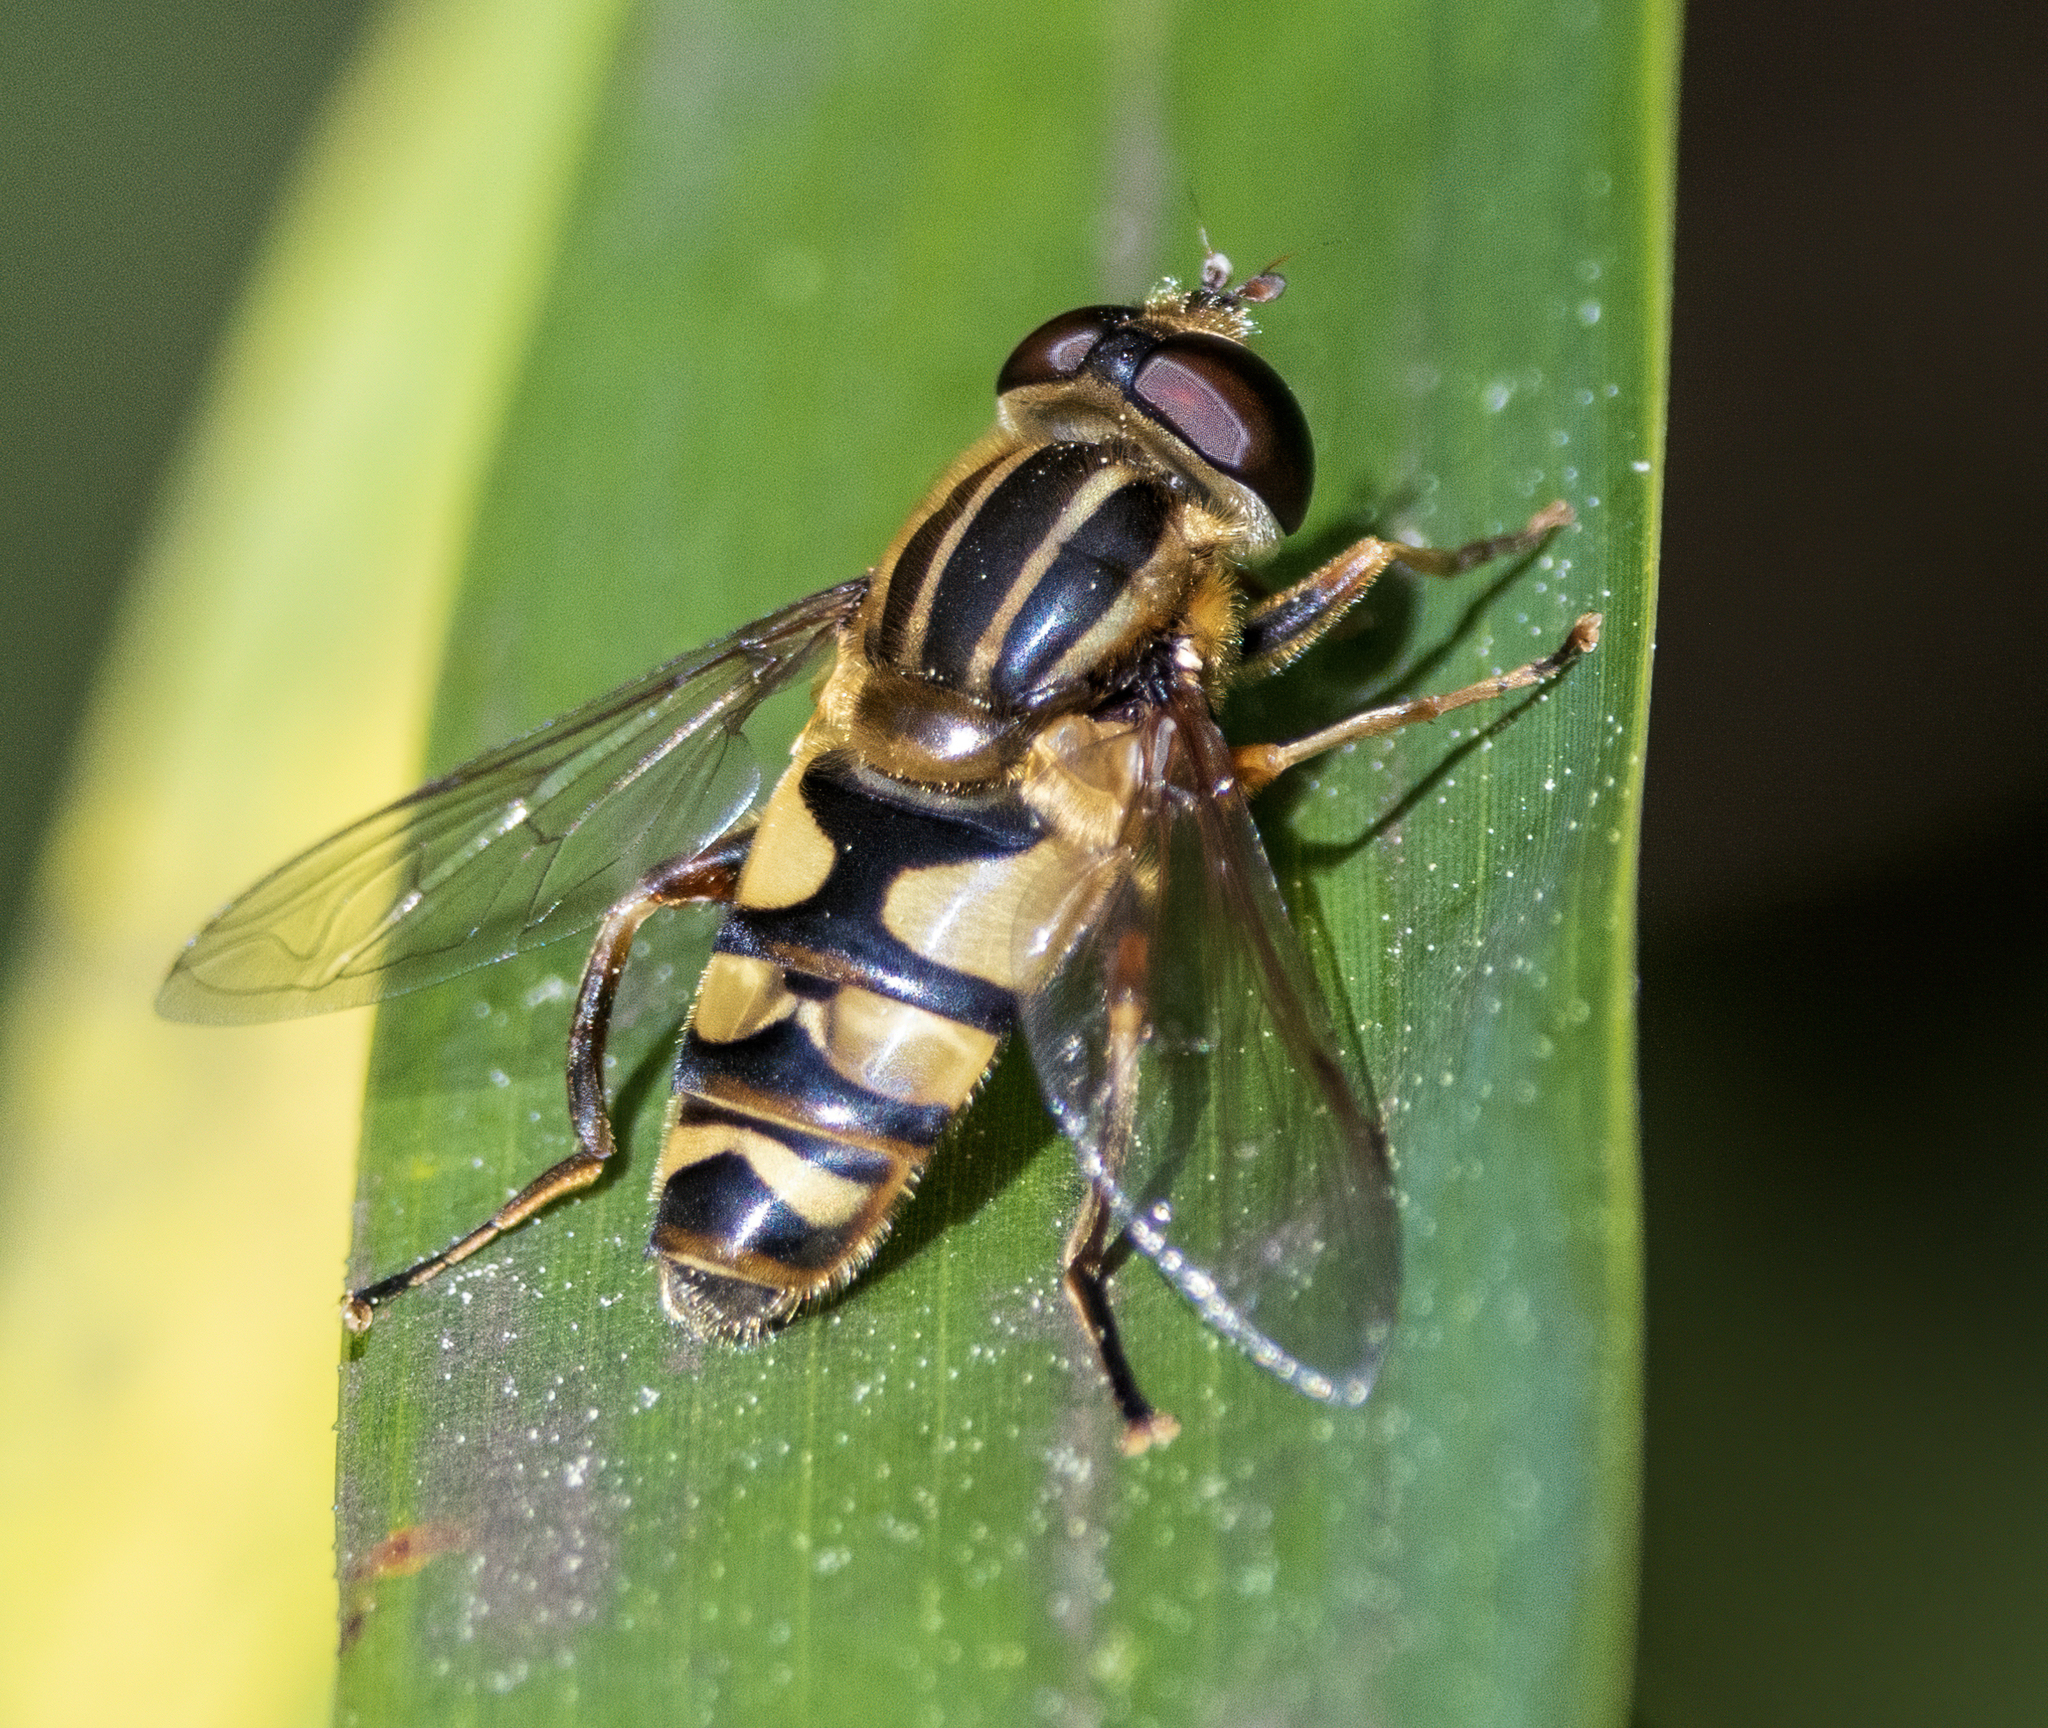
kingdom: Animalia
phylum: Arthropoda
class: Insecta
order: Diptera
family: Syrphidae
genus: Helophilus
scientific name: Helophilus fasciatus
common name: Narrow-headed marsh fly
